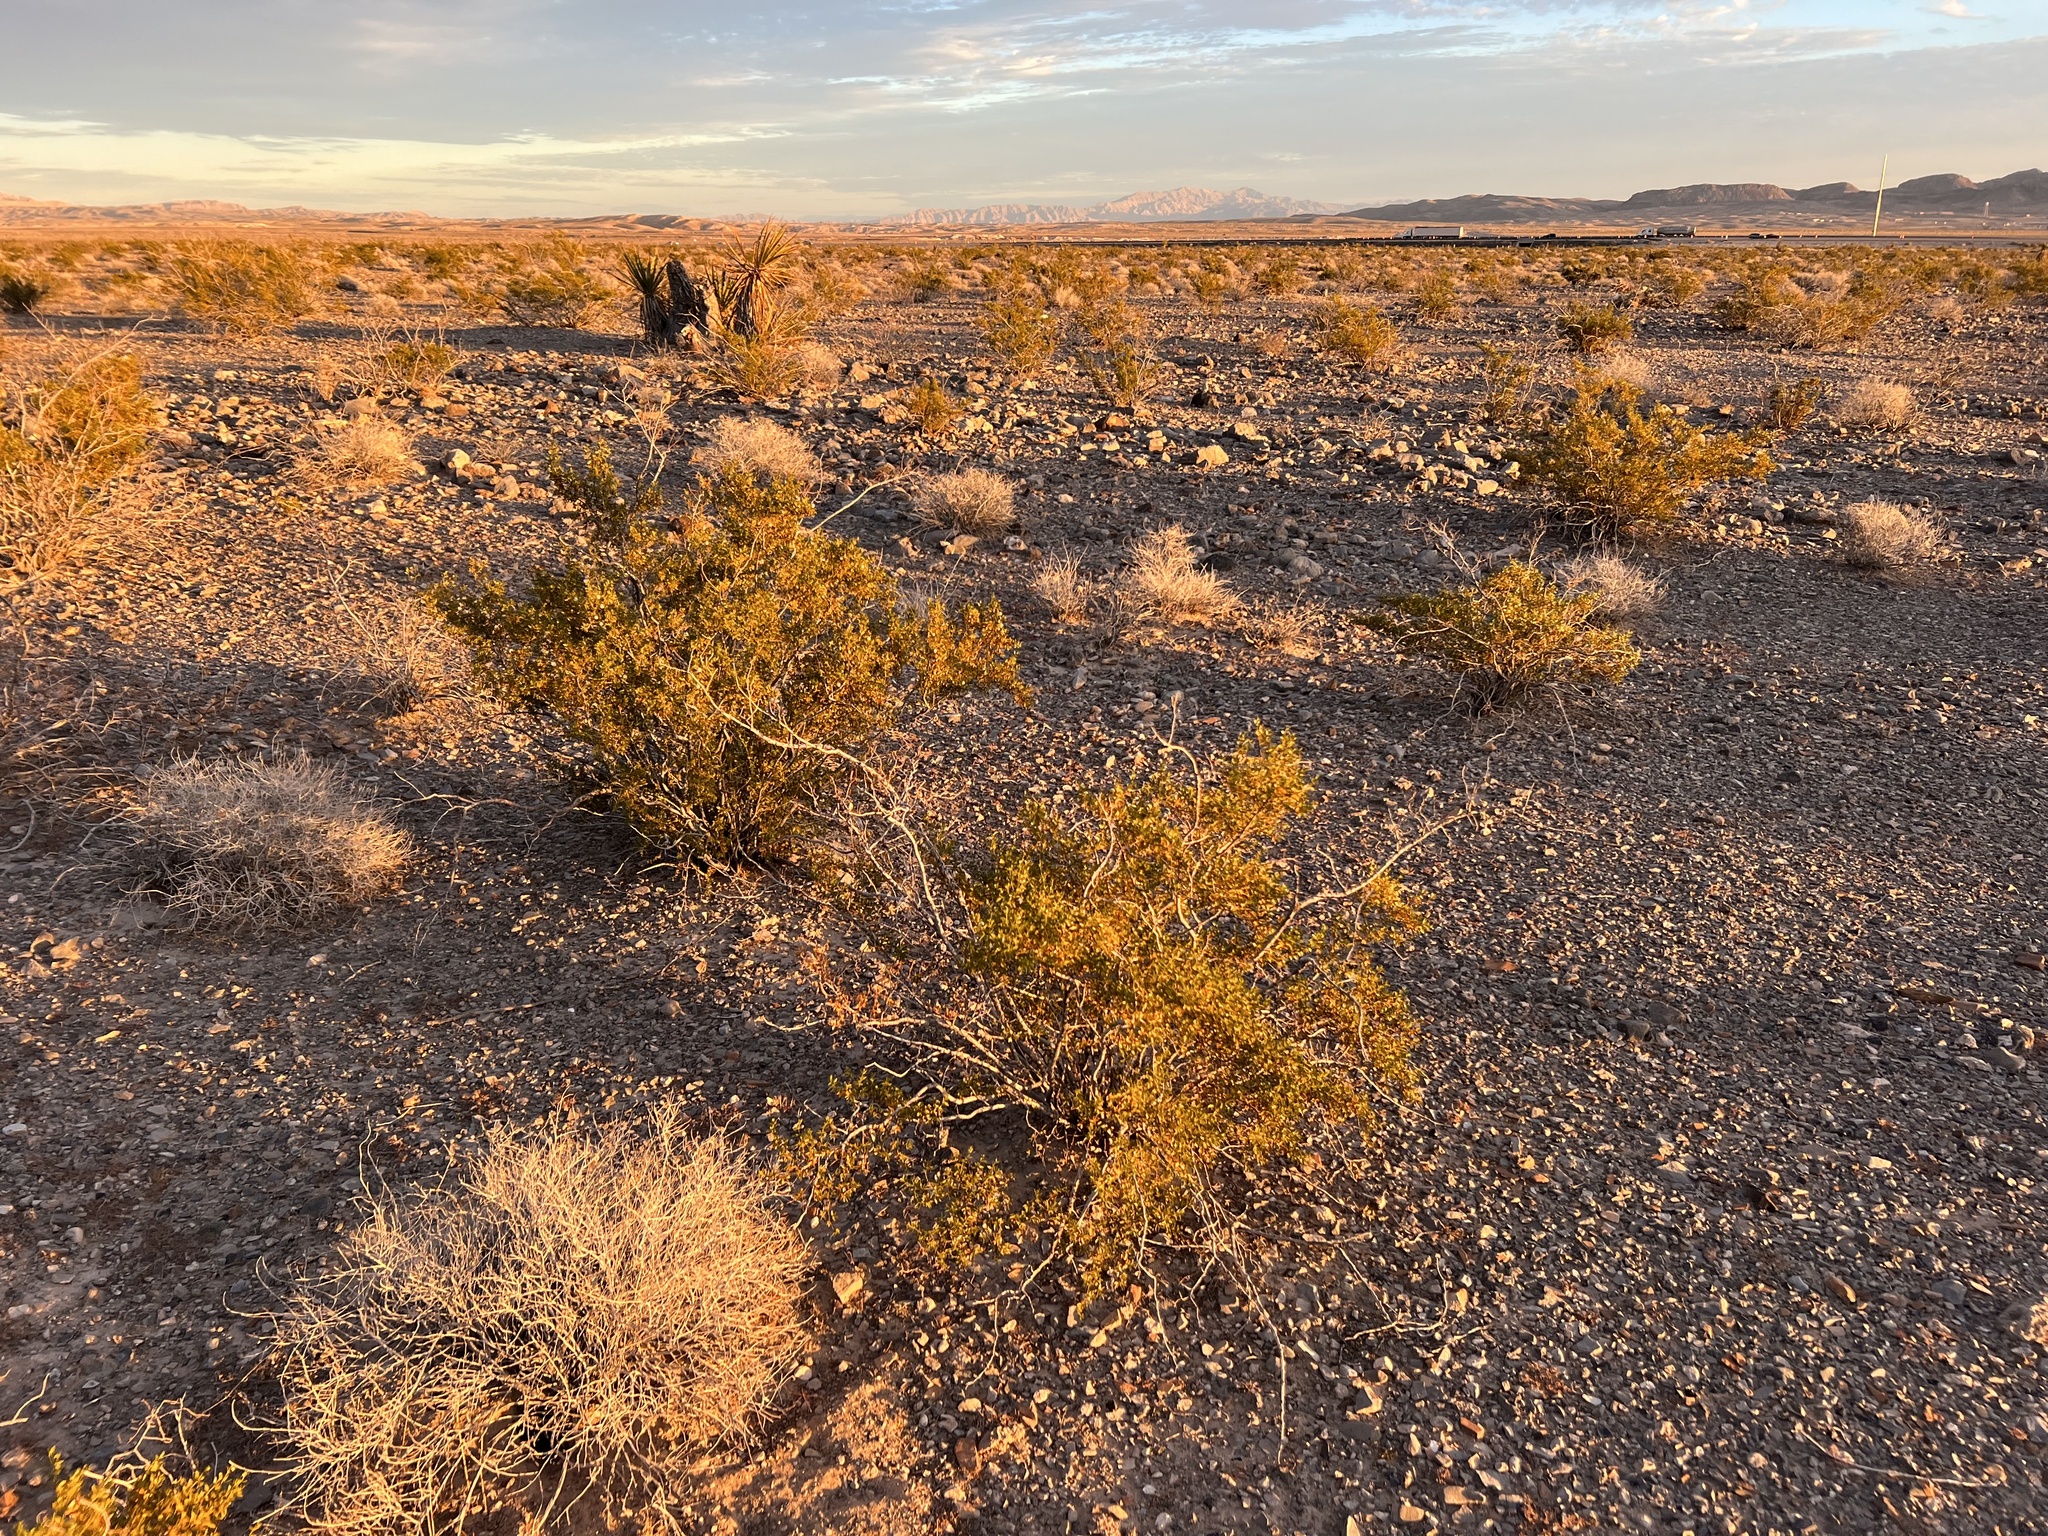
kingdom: Plantae
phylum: Tracheophyta
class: Magnoliopsida
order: Zygophyllales
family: Zygophyllaceae
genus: Larrea
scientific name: Larrea tridentata
